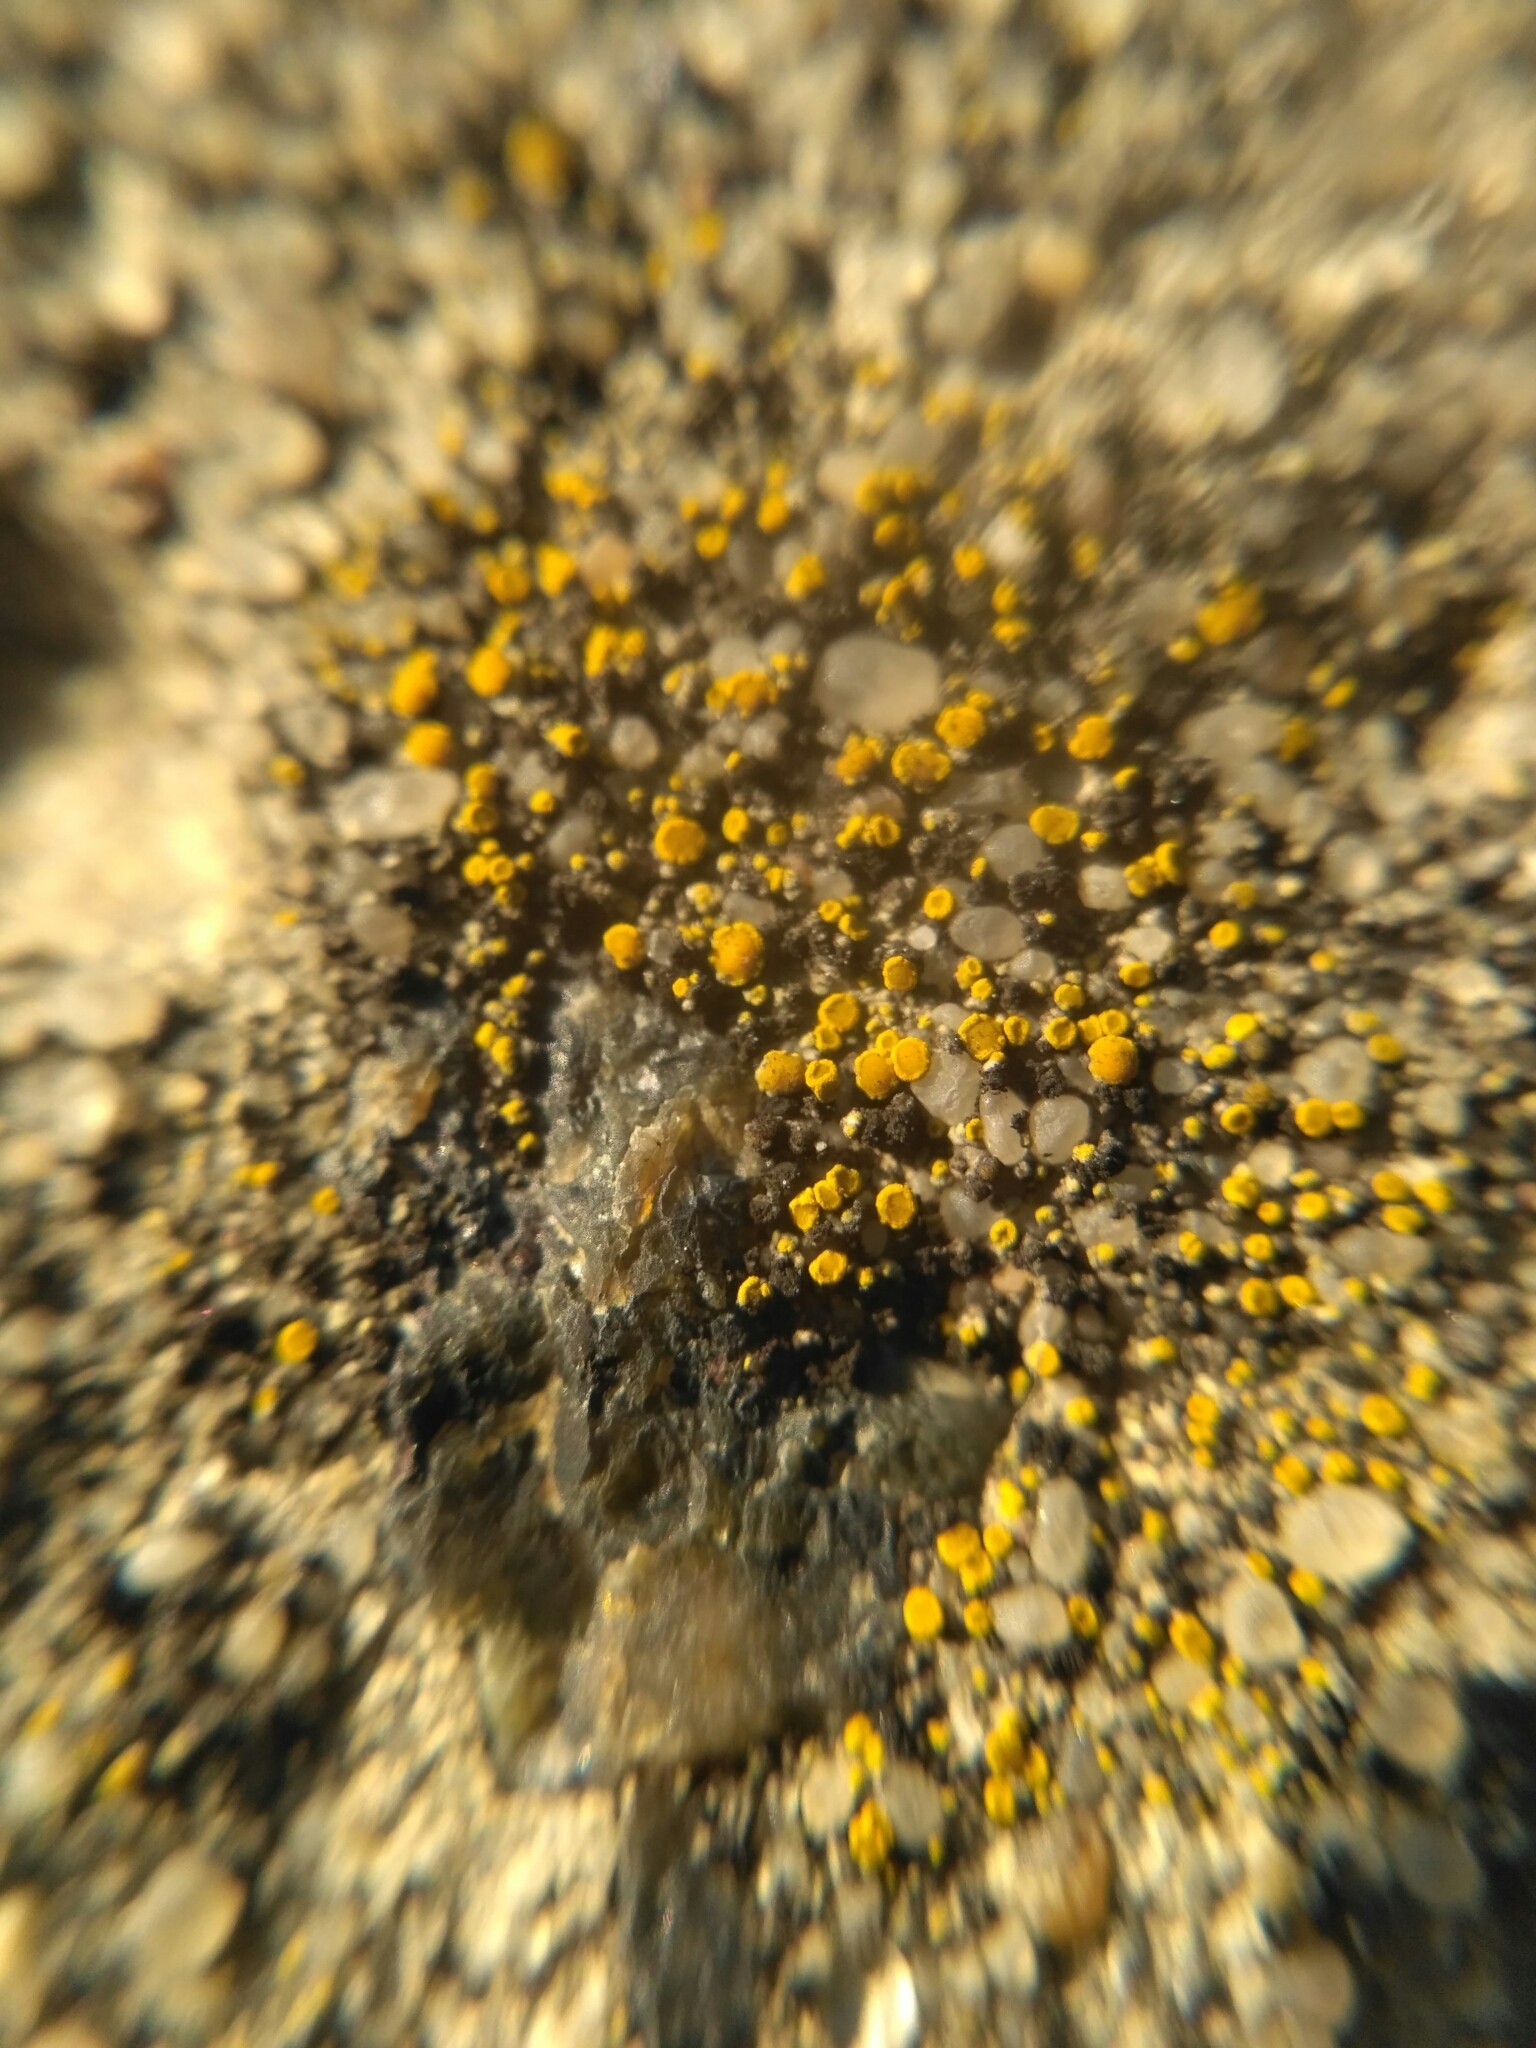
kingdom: Fungi
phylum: Ascomycota
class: Candelariomycetes
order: Candelariales
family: Candelariaceae
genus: Candelariella
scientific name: Candelariella aurella
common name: Hidden goldspeck lichen
